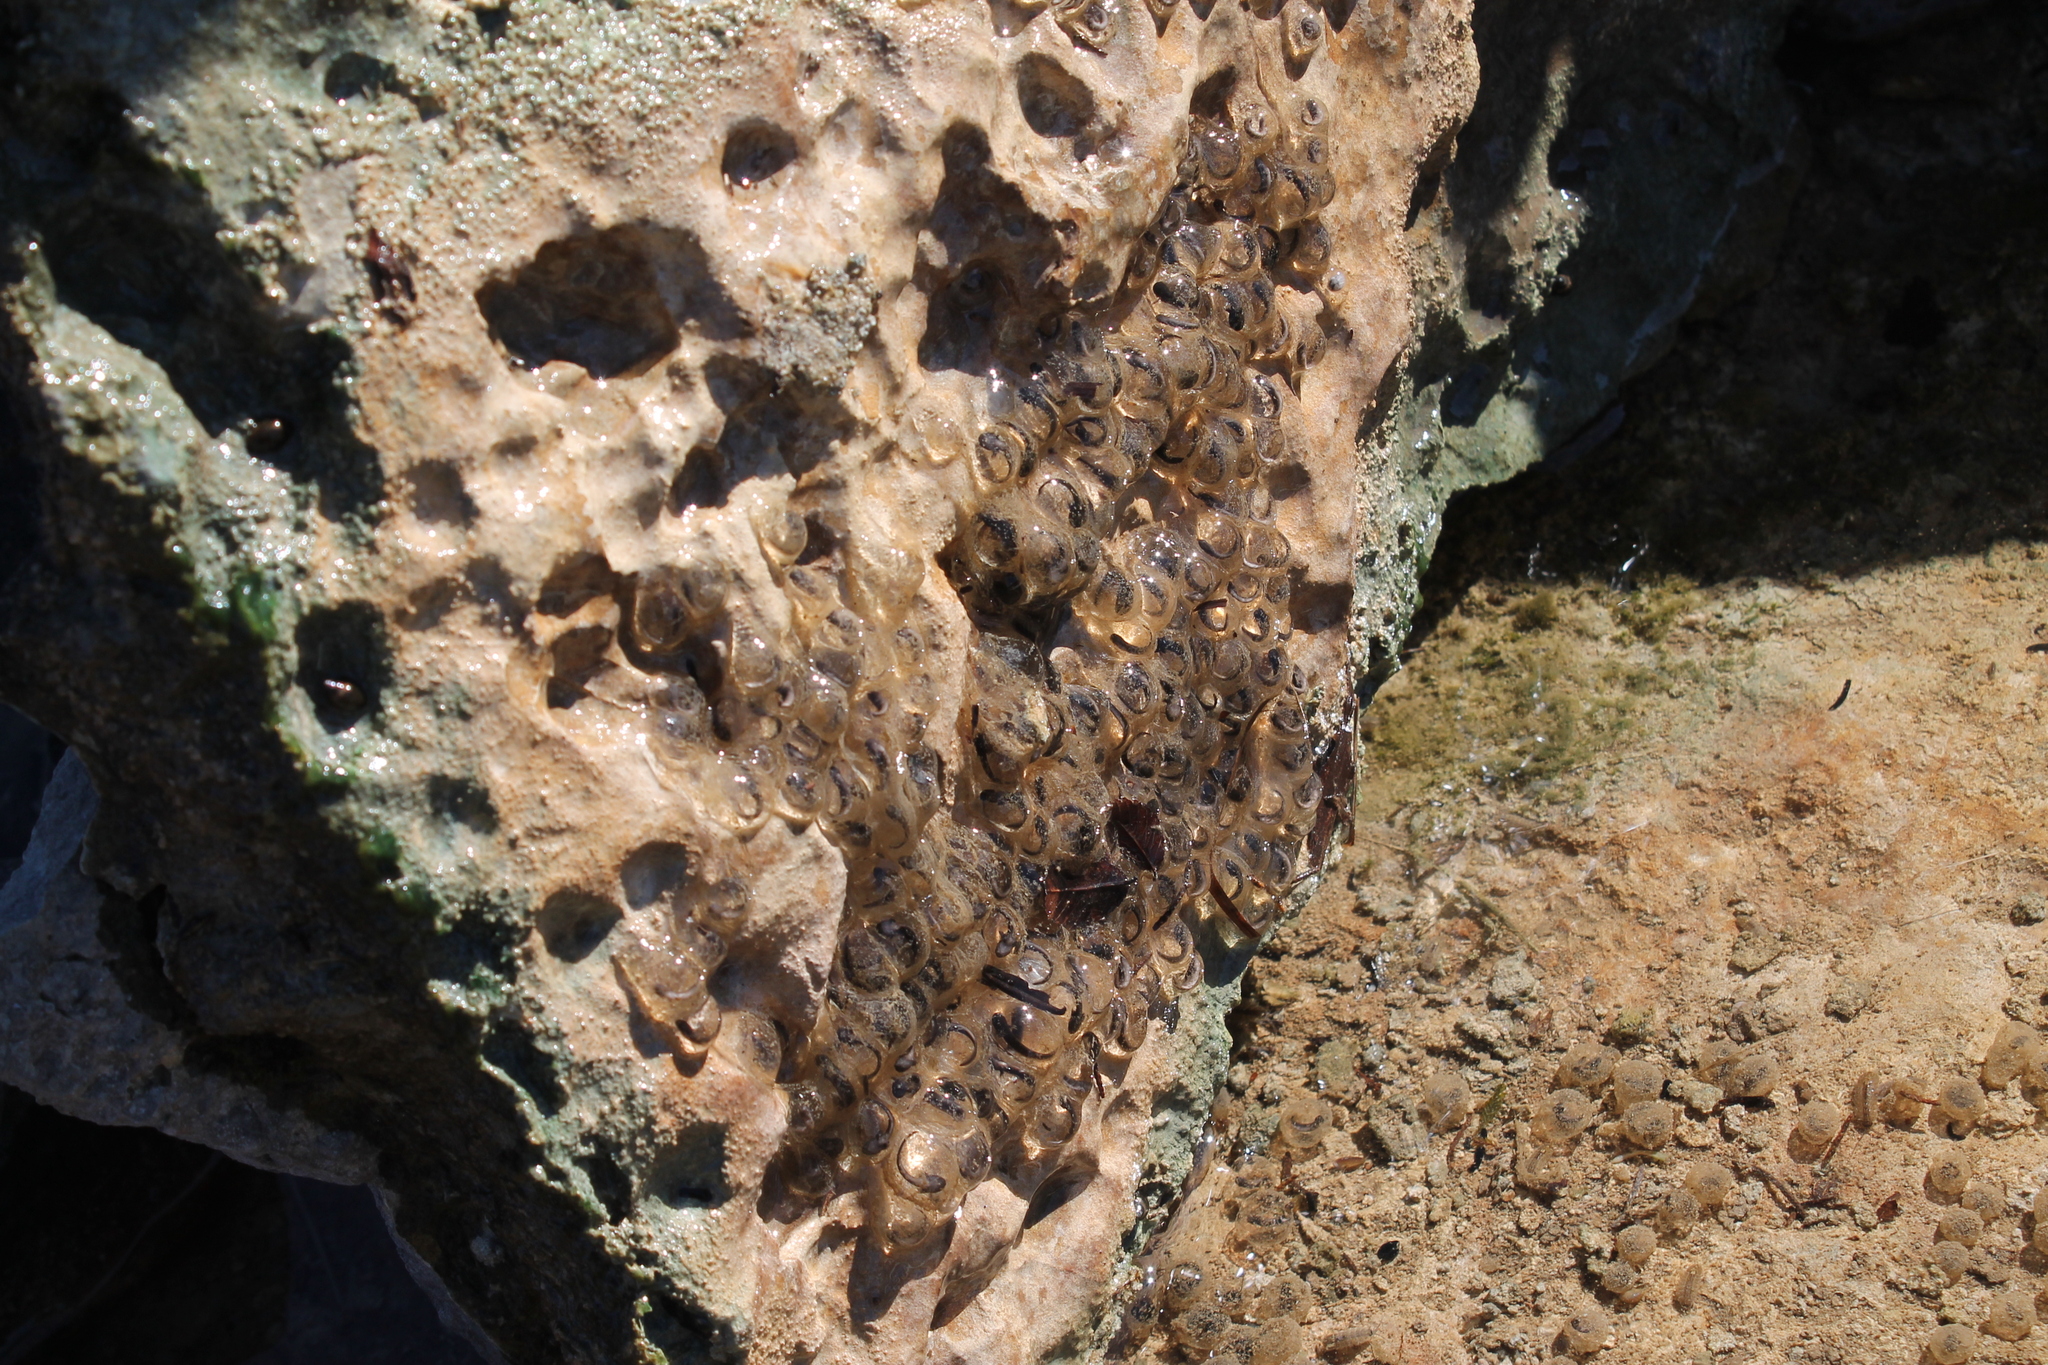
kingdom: Animalia
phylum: Chordata
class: Amphibia
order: Caudata
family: Ambystomatidae
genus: Ambystoma
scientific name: Ambystoma barbouri
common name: Streamside salamander
